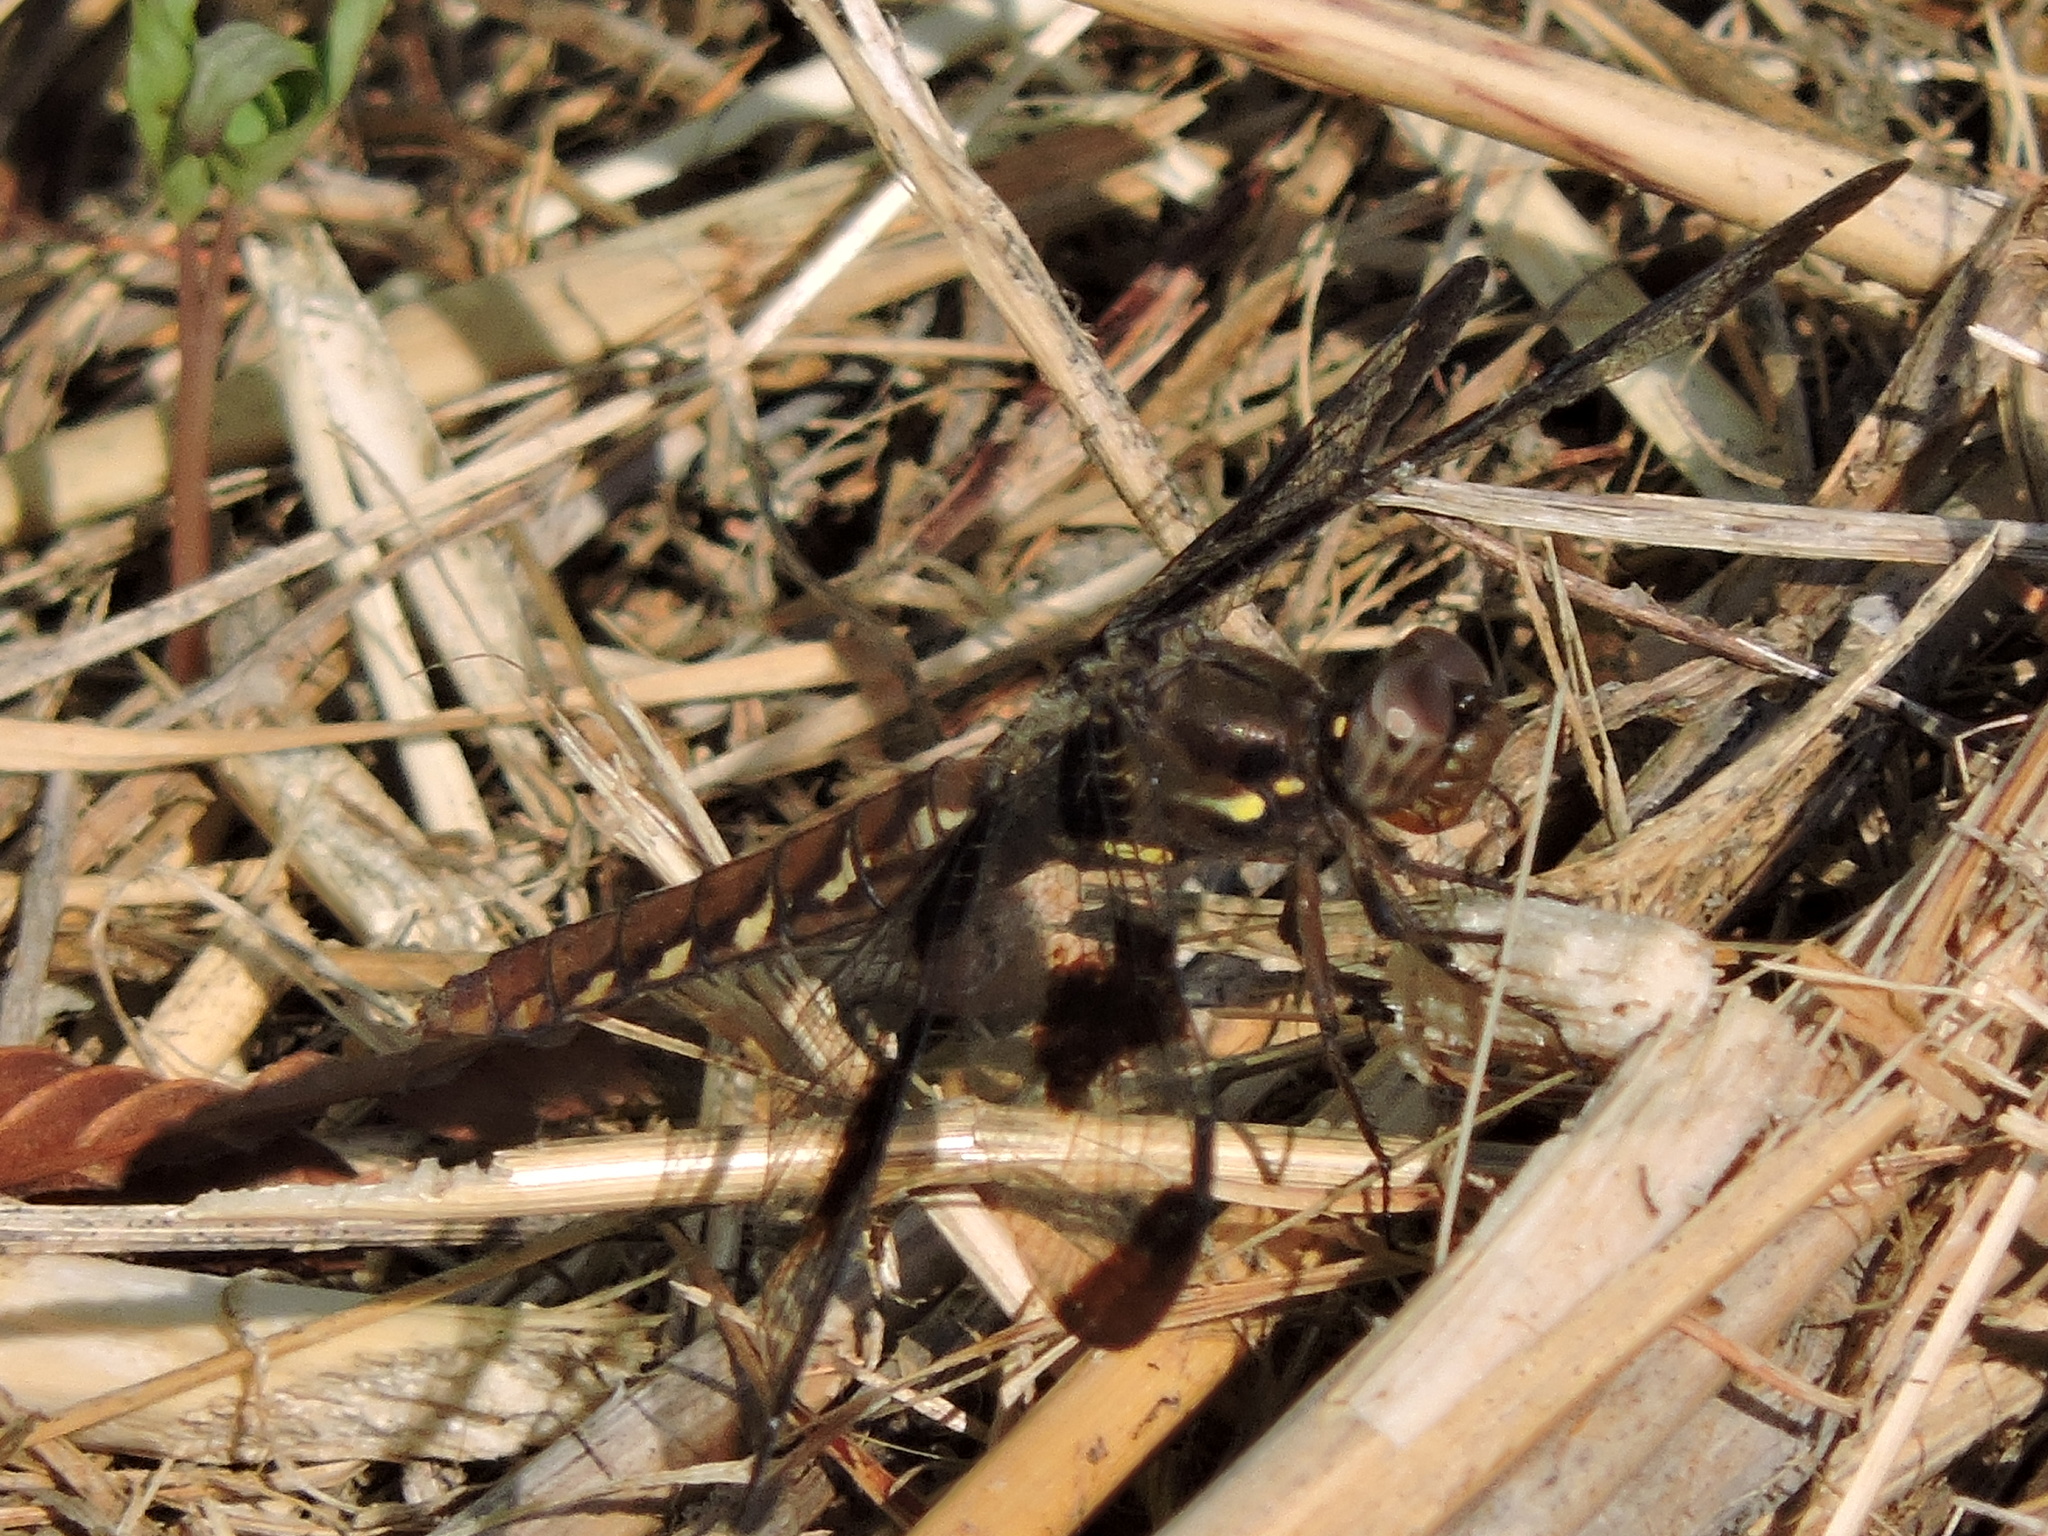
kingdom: Animalia
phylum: Arthropoda
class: Insecta
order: Odonata
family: Libellulidae
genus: Plathemis
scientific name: Plathemis lydia
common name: Common whitetail
